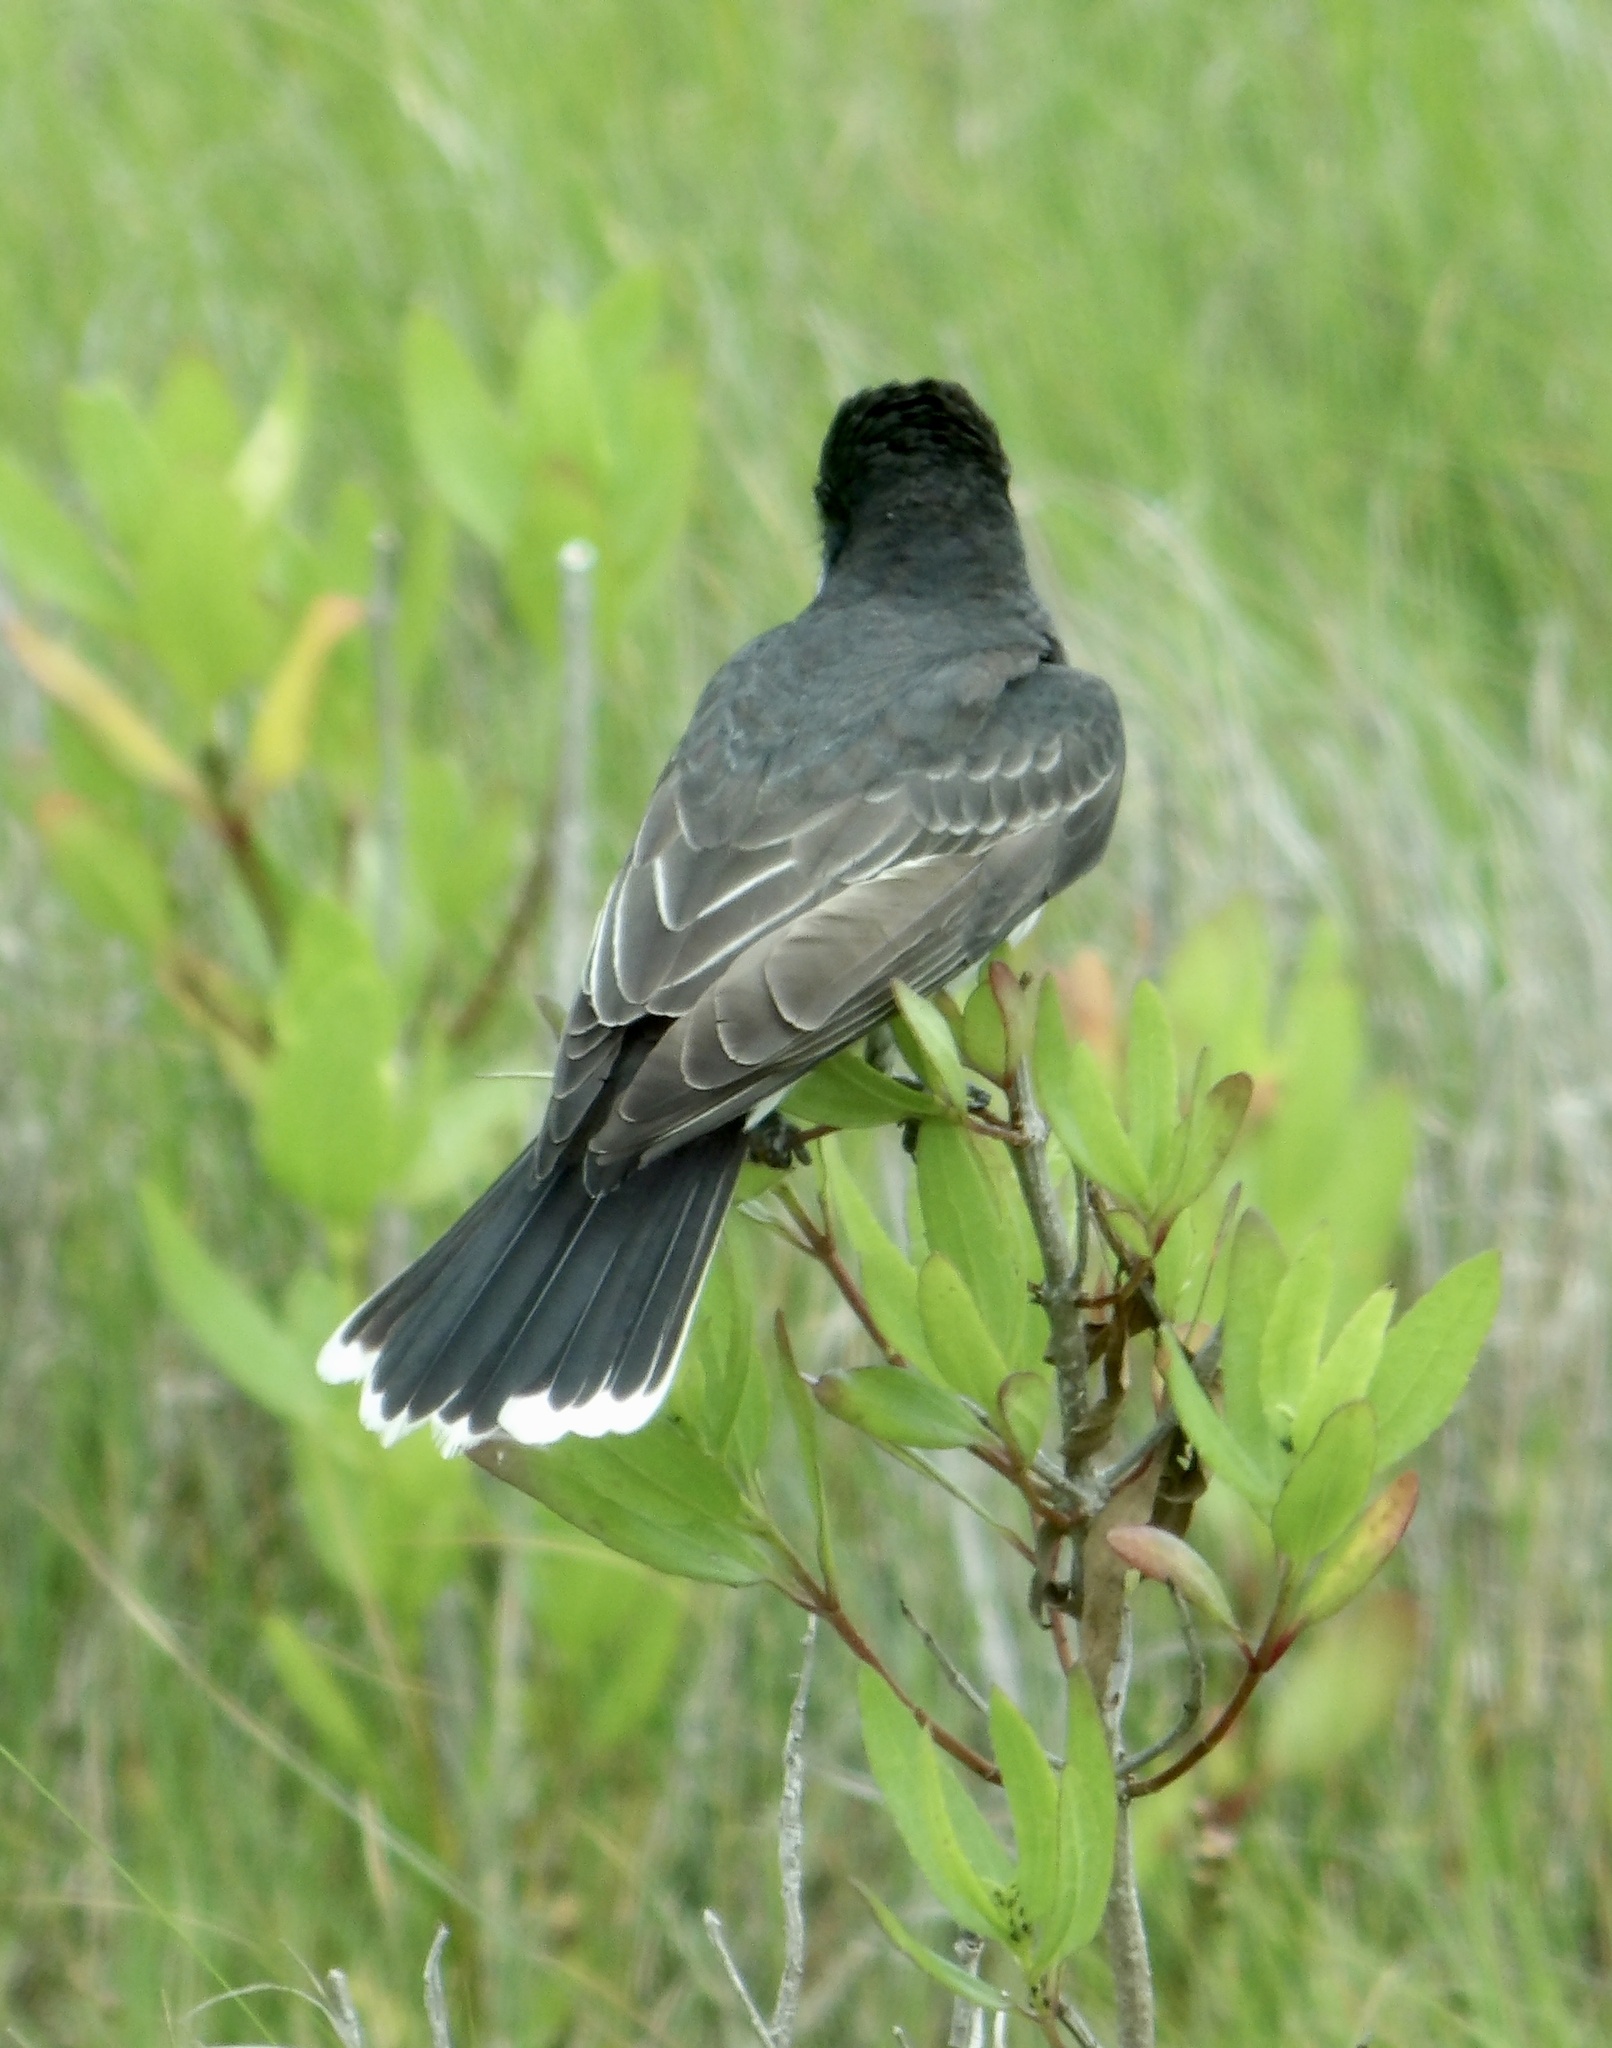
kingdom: Animalia
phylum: Chordata
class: Aves
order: Passeriformes
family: Tyrannidae
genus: Tyrannus
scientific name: Tyrannus tyrannus
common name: Eastern kingbird
